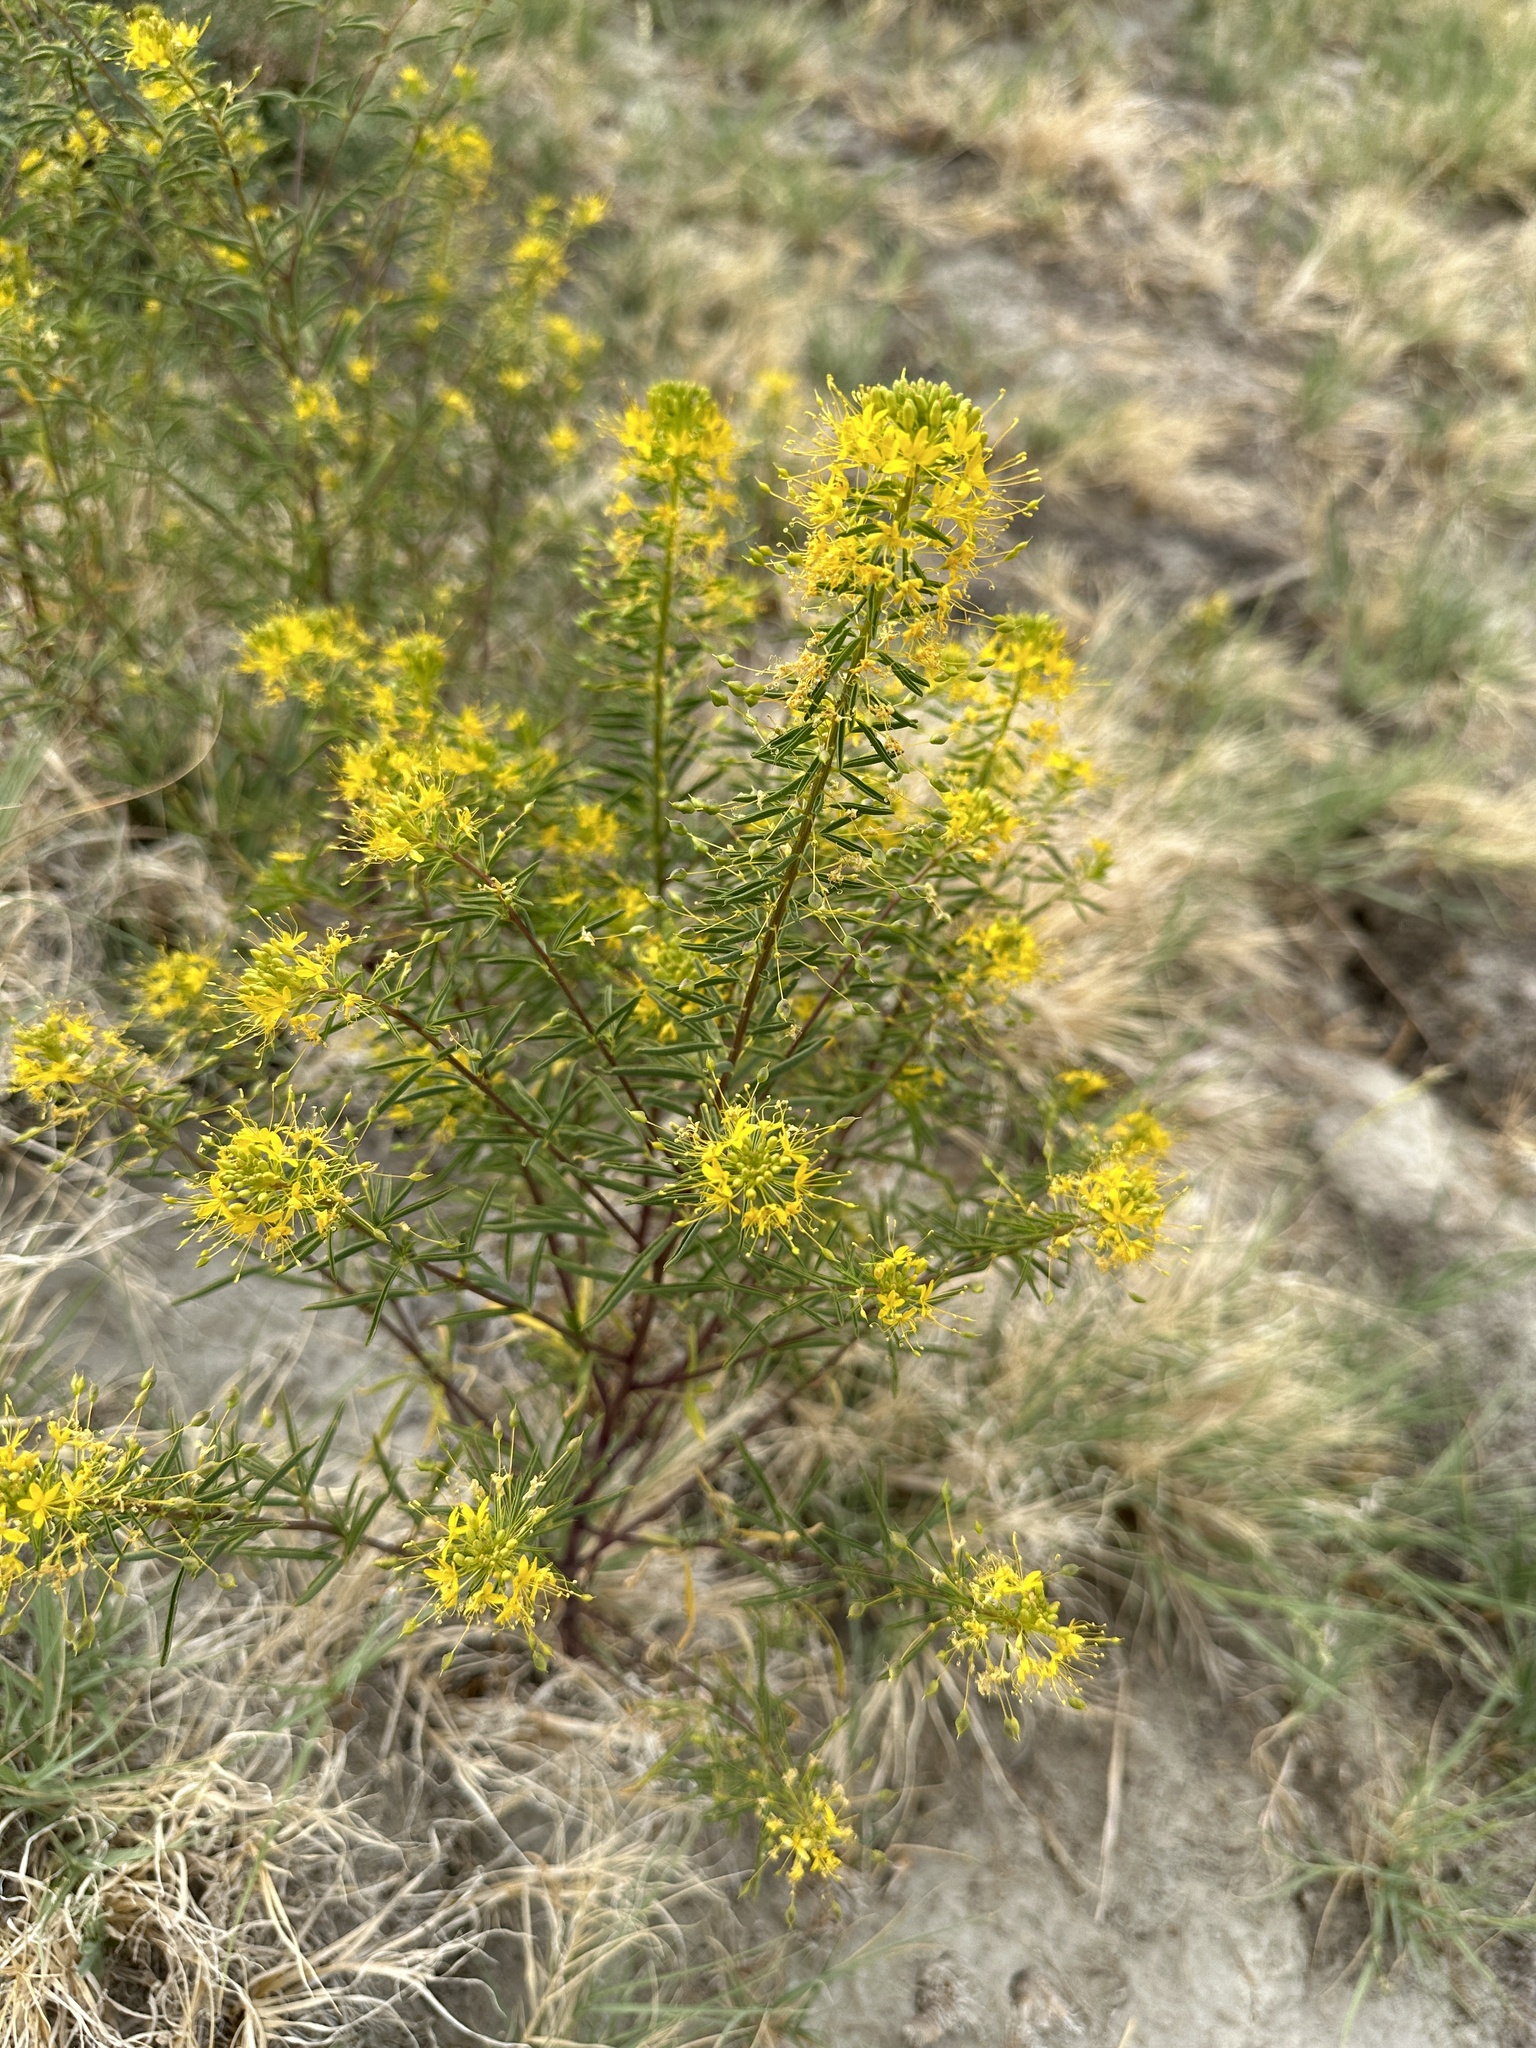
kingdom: Plantae
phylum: Tracheophyta
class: Magnoliopsida
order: Brassicales
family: Cleomaceae
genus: Cleomella
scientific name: Cleomella plocasperma
